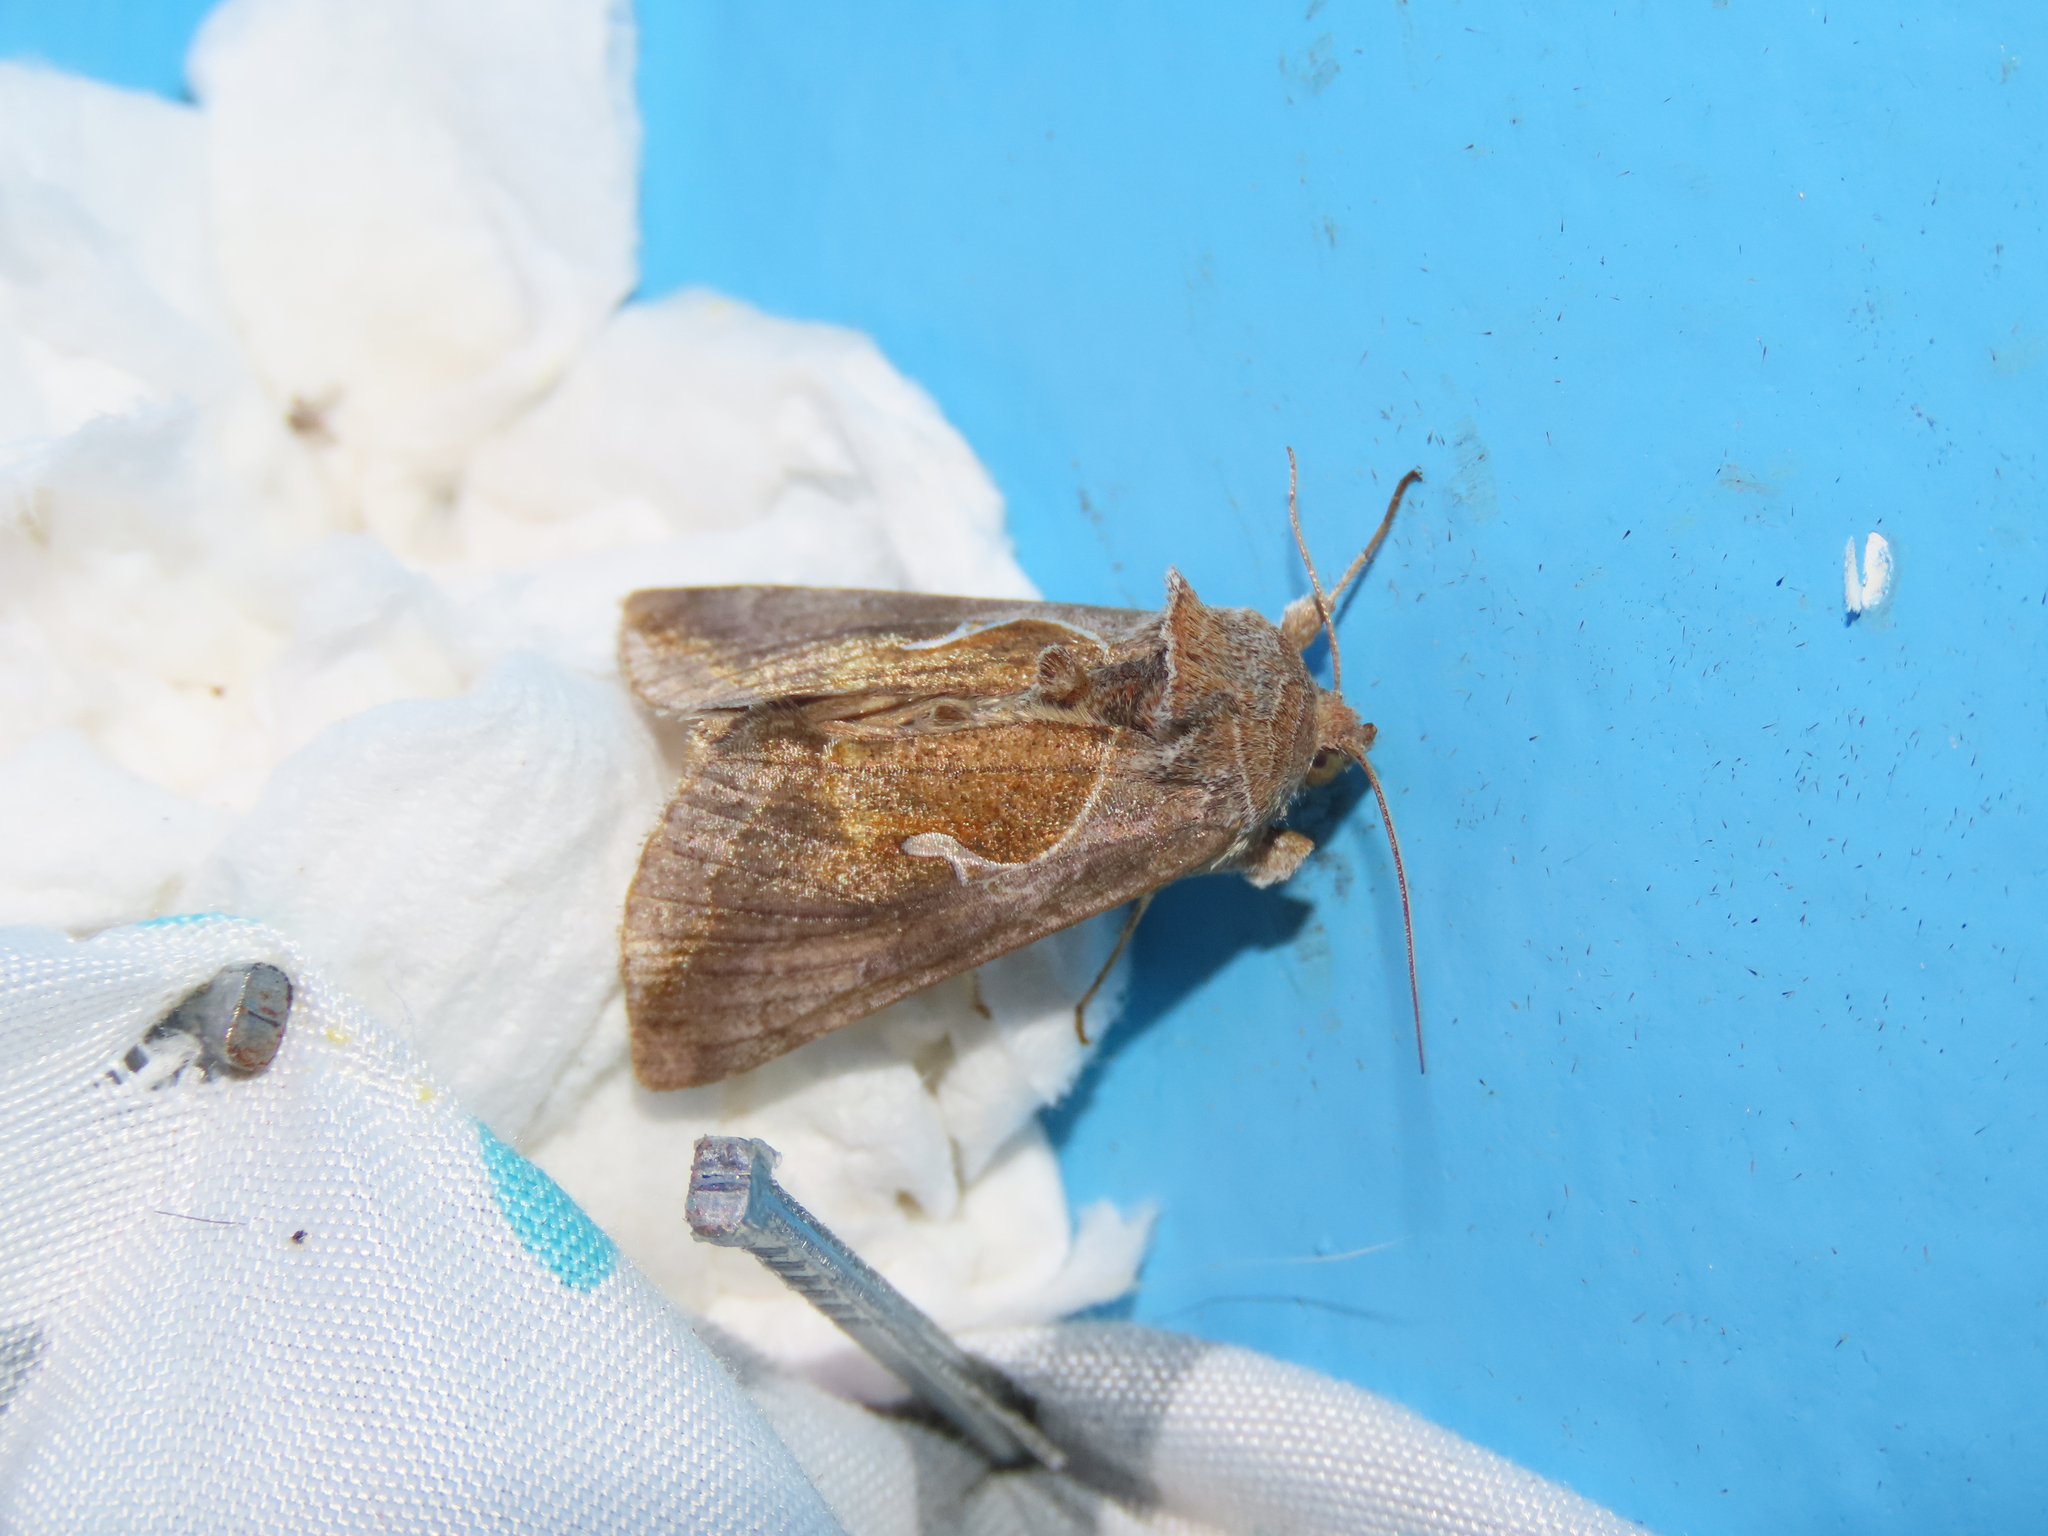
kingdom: Animalia
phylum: Arthropoda
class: Insecta
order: Lepidoptera
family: Noctuidae
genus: Anagrapha
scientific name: Anagrapha falcifera
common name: Celery looper
